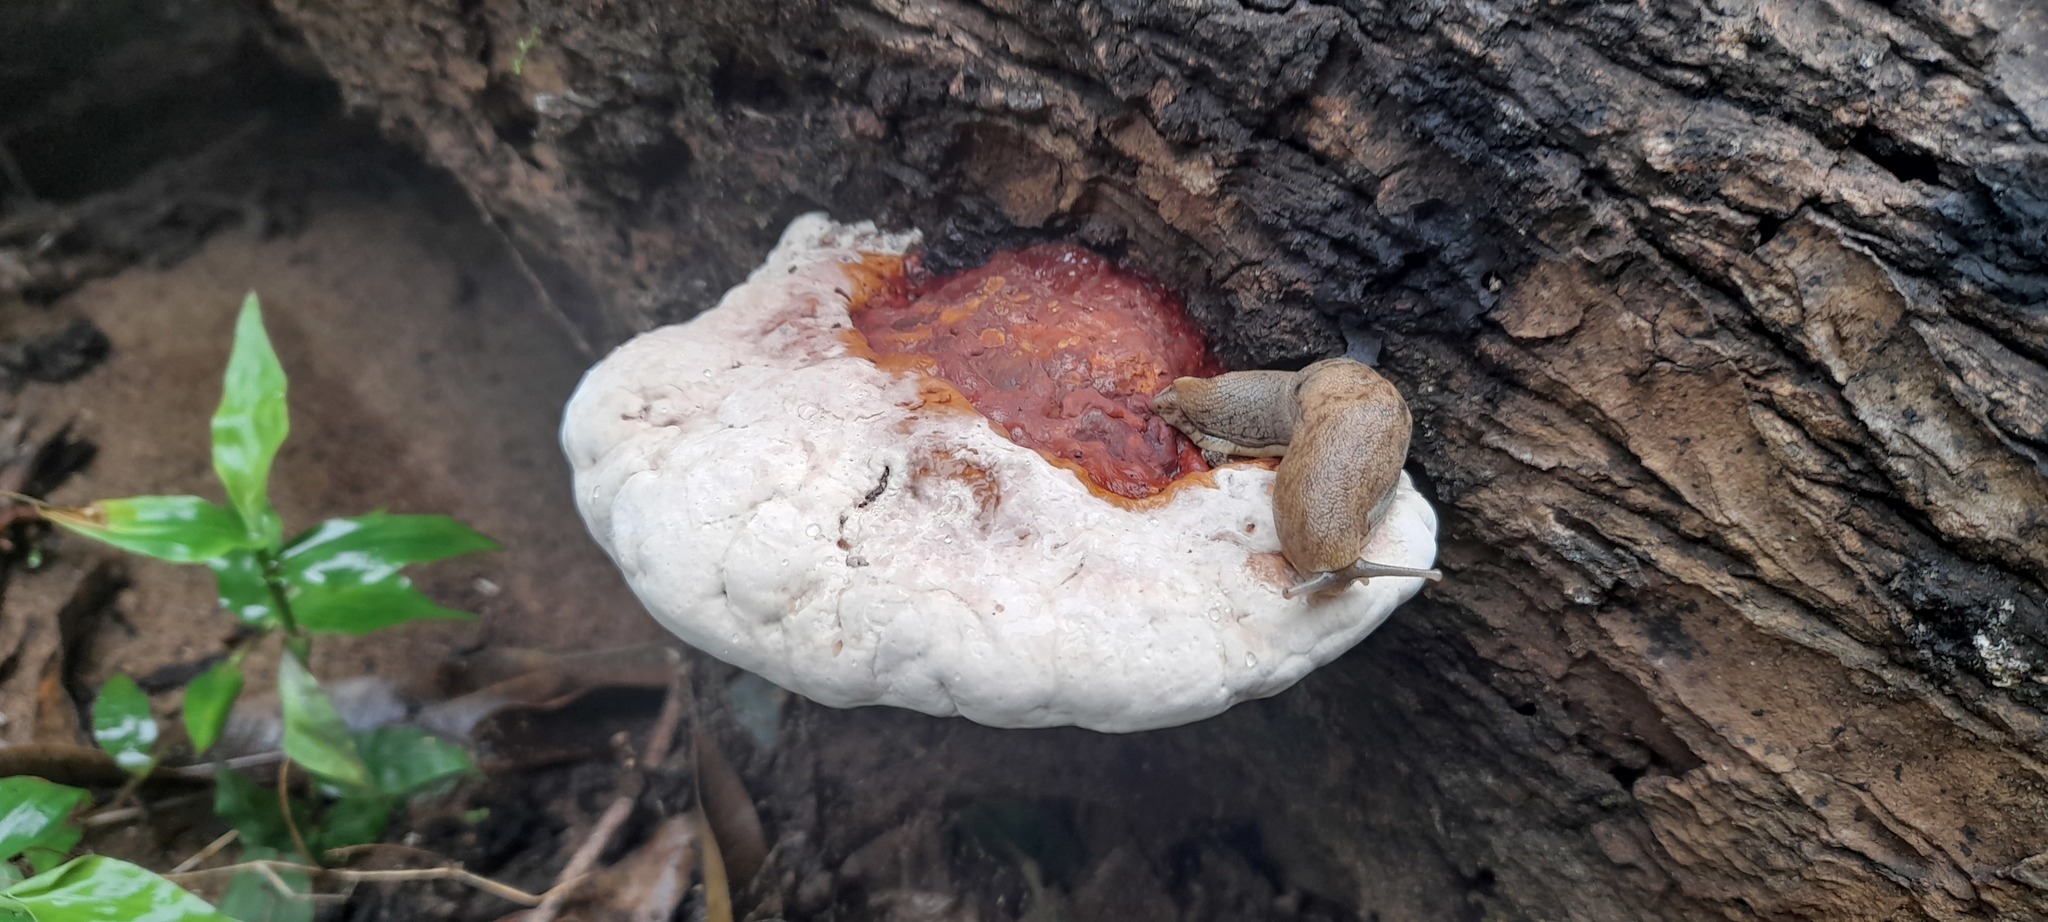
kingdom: Animalia
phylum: Mollusca
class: Gastropoda
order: Stylommatophora
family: Ariophantidae
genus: Mariaella
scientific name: Mariaella dussumieri
